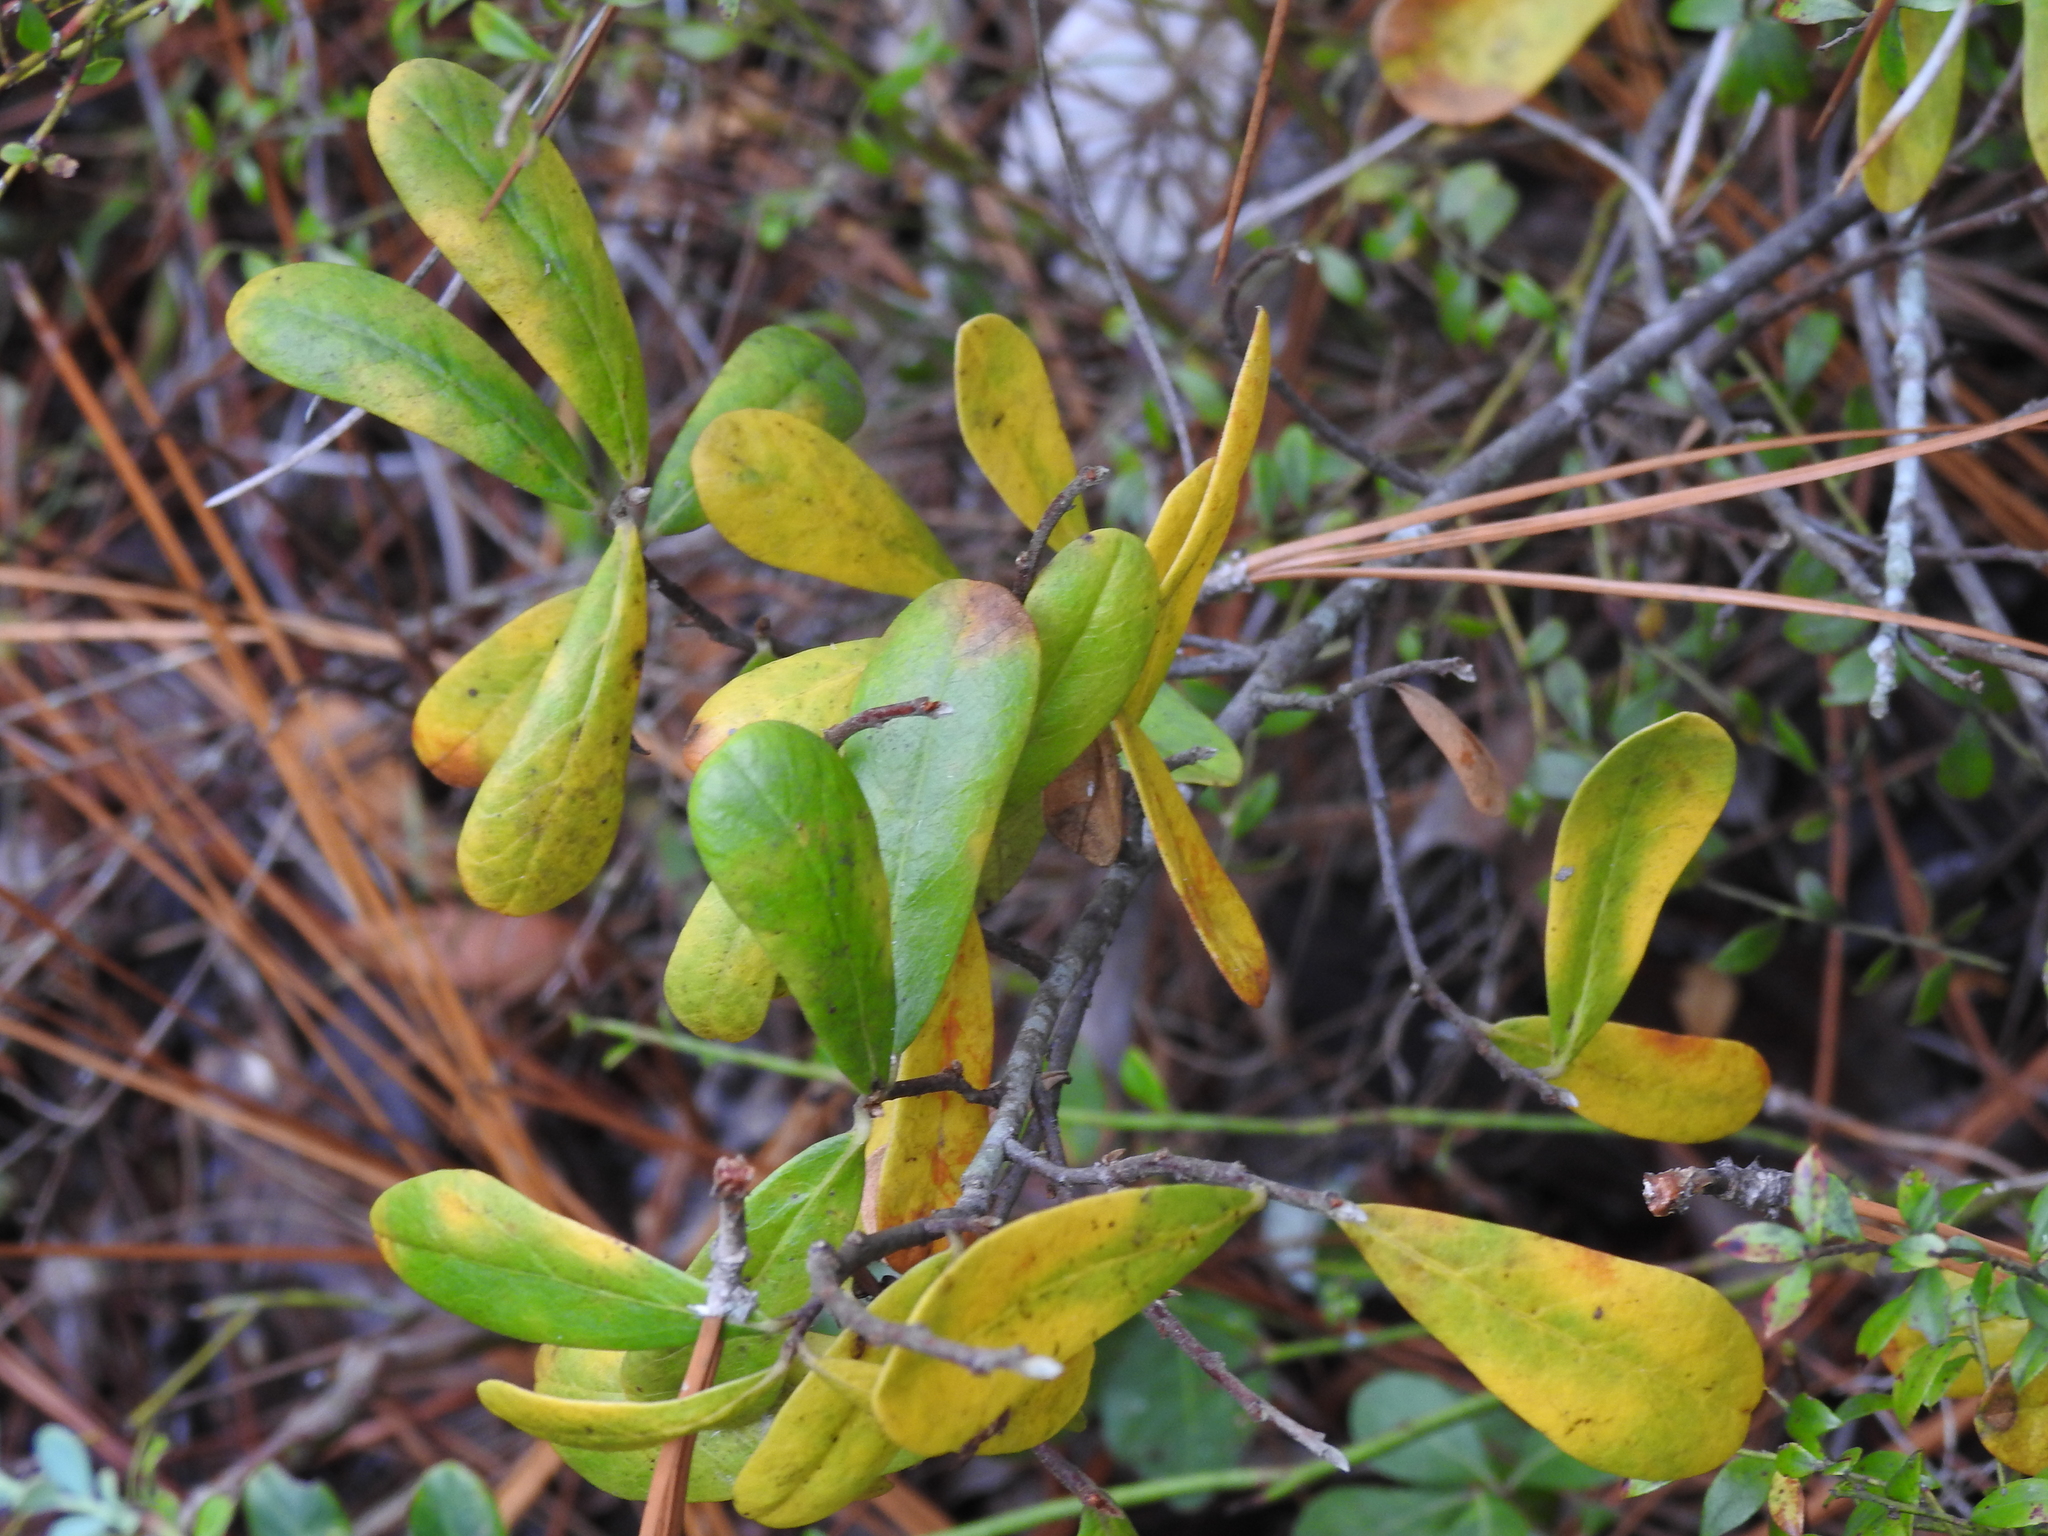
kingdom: Plantae
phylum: Tracheophyta
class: Magnoliopsida
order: Magnoliales
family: Annonaceae
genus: Asimina
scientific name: Asimina reticulata
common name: Flag pawpaw
